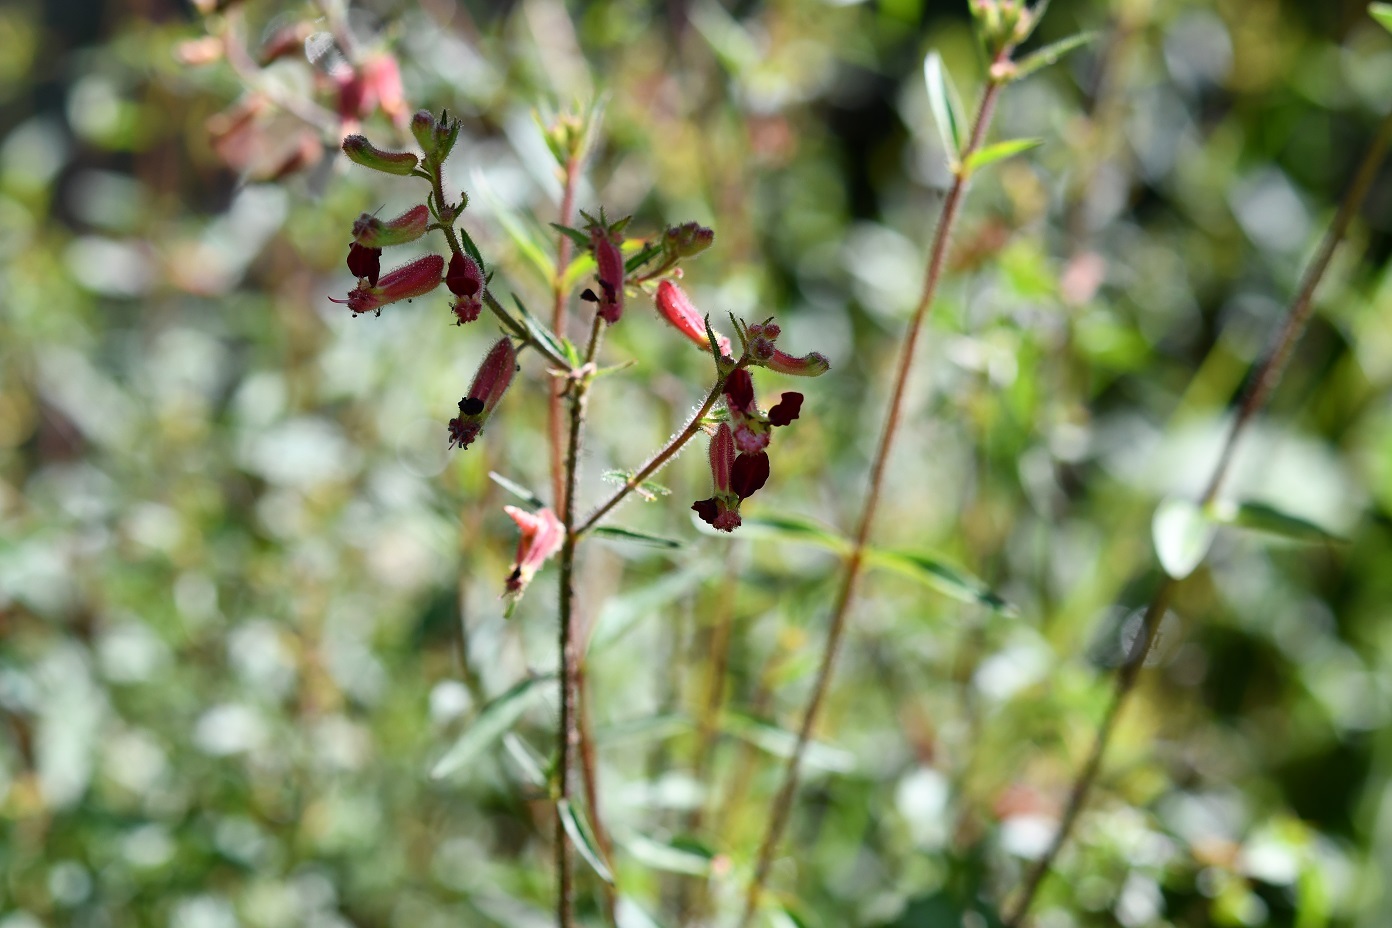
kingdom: Plantae
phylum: Tracheophyta
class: Magnoliopsida
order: Myrtales
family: Lythraceae
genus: Cuphea
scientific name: Cuphea hookeriana
